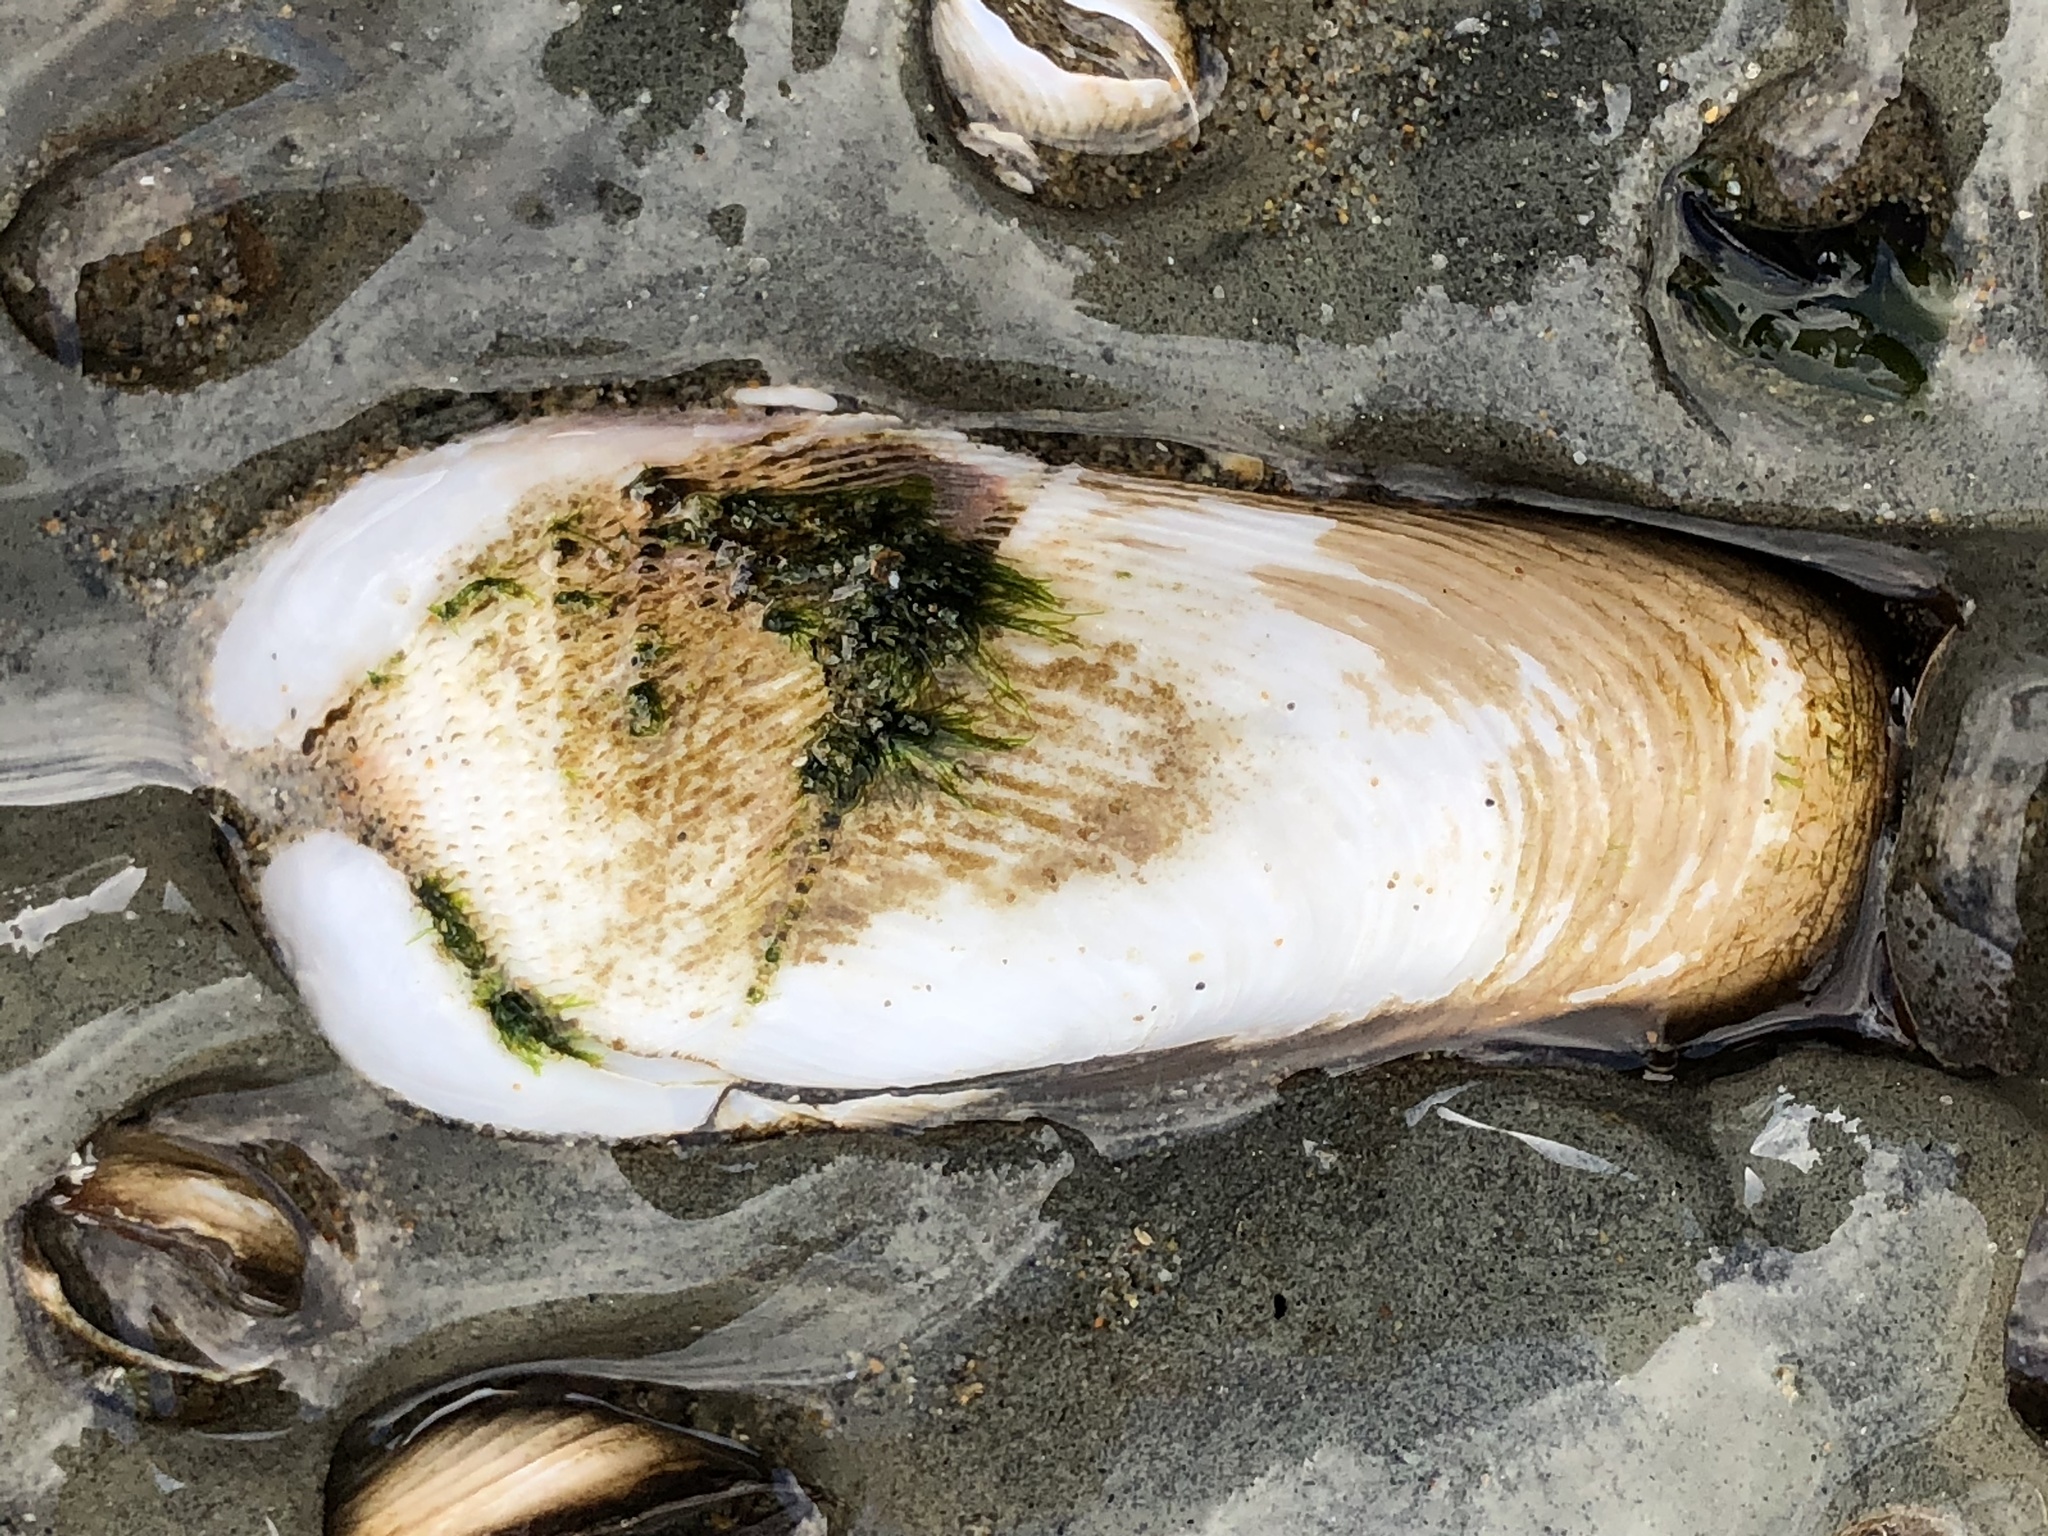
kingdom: Animalia
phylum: Mollusca
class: Bivalvia
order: Myida
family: Pholadidae
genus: Parapholas
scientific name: Parapholas californica
